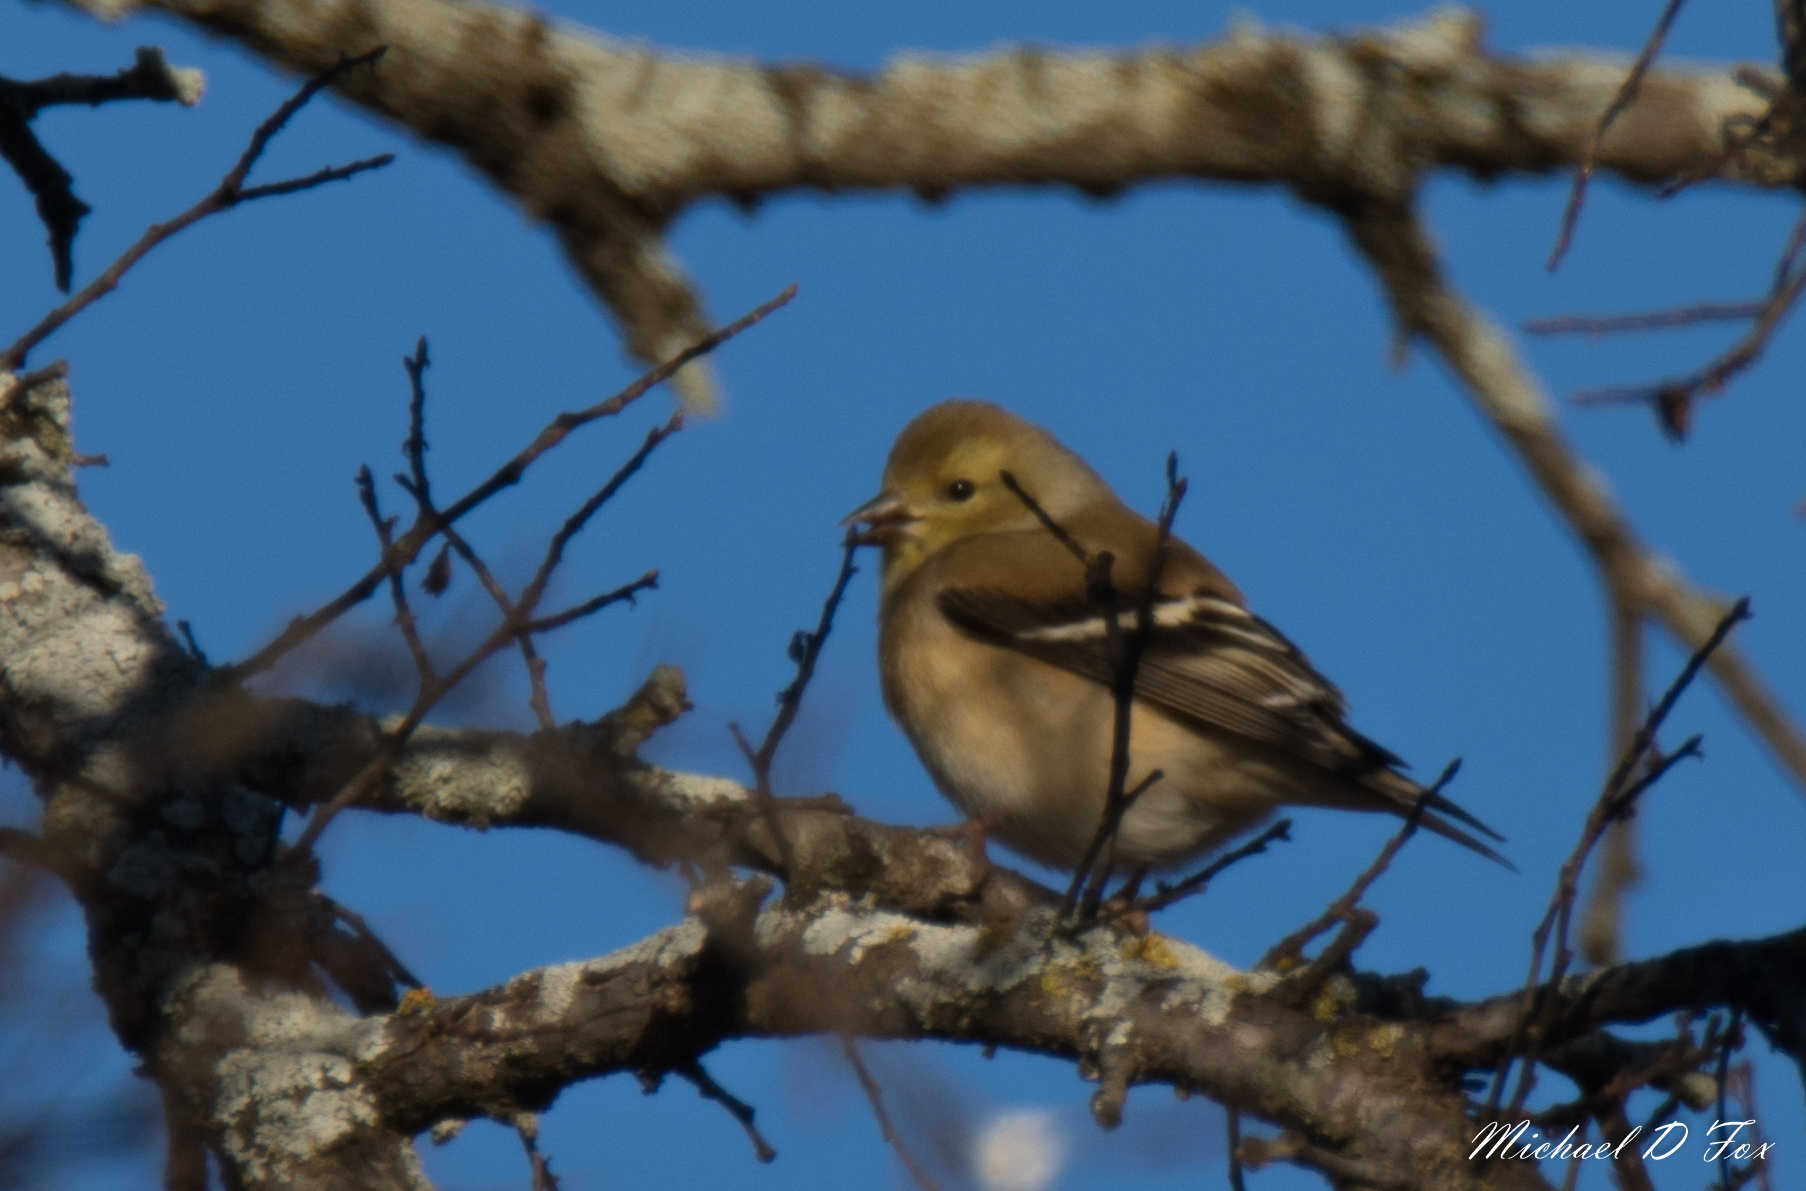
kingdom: Animalia
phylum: Chordata
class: Aves
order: Passeriformes
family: Fringillidae
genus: Spinus
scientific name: Spinus tristis
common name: American goldfinch
